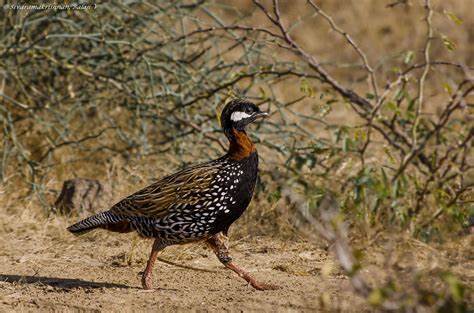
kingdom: Animalia
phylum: Chordata
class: Aves
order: Galliformes
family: Phasianidae
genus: Francolinus
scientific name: Francolinus francolinus
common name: Black francolin
